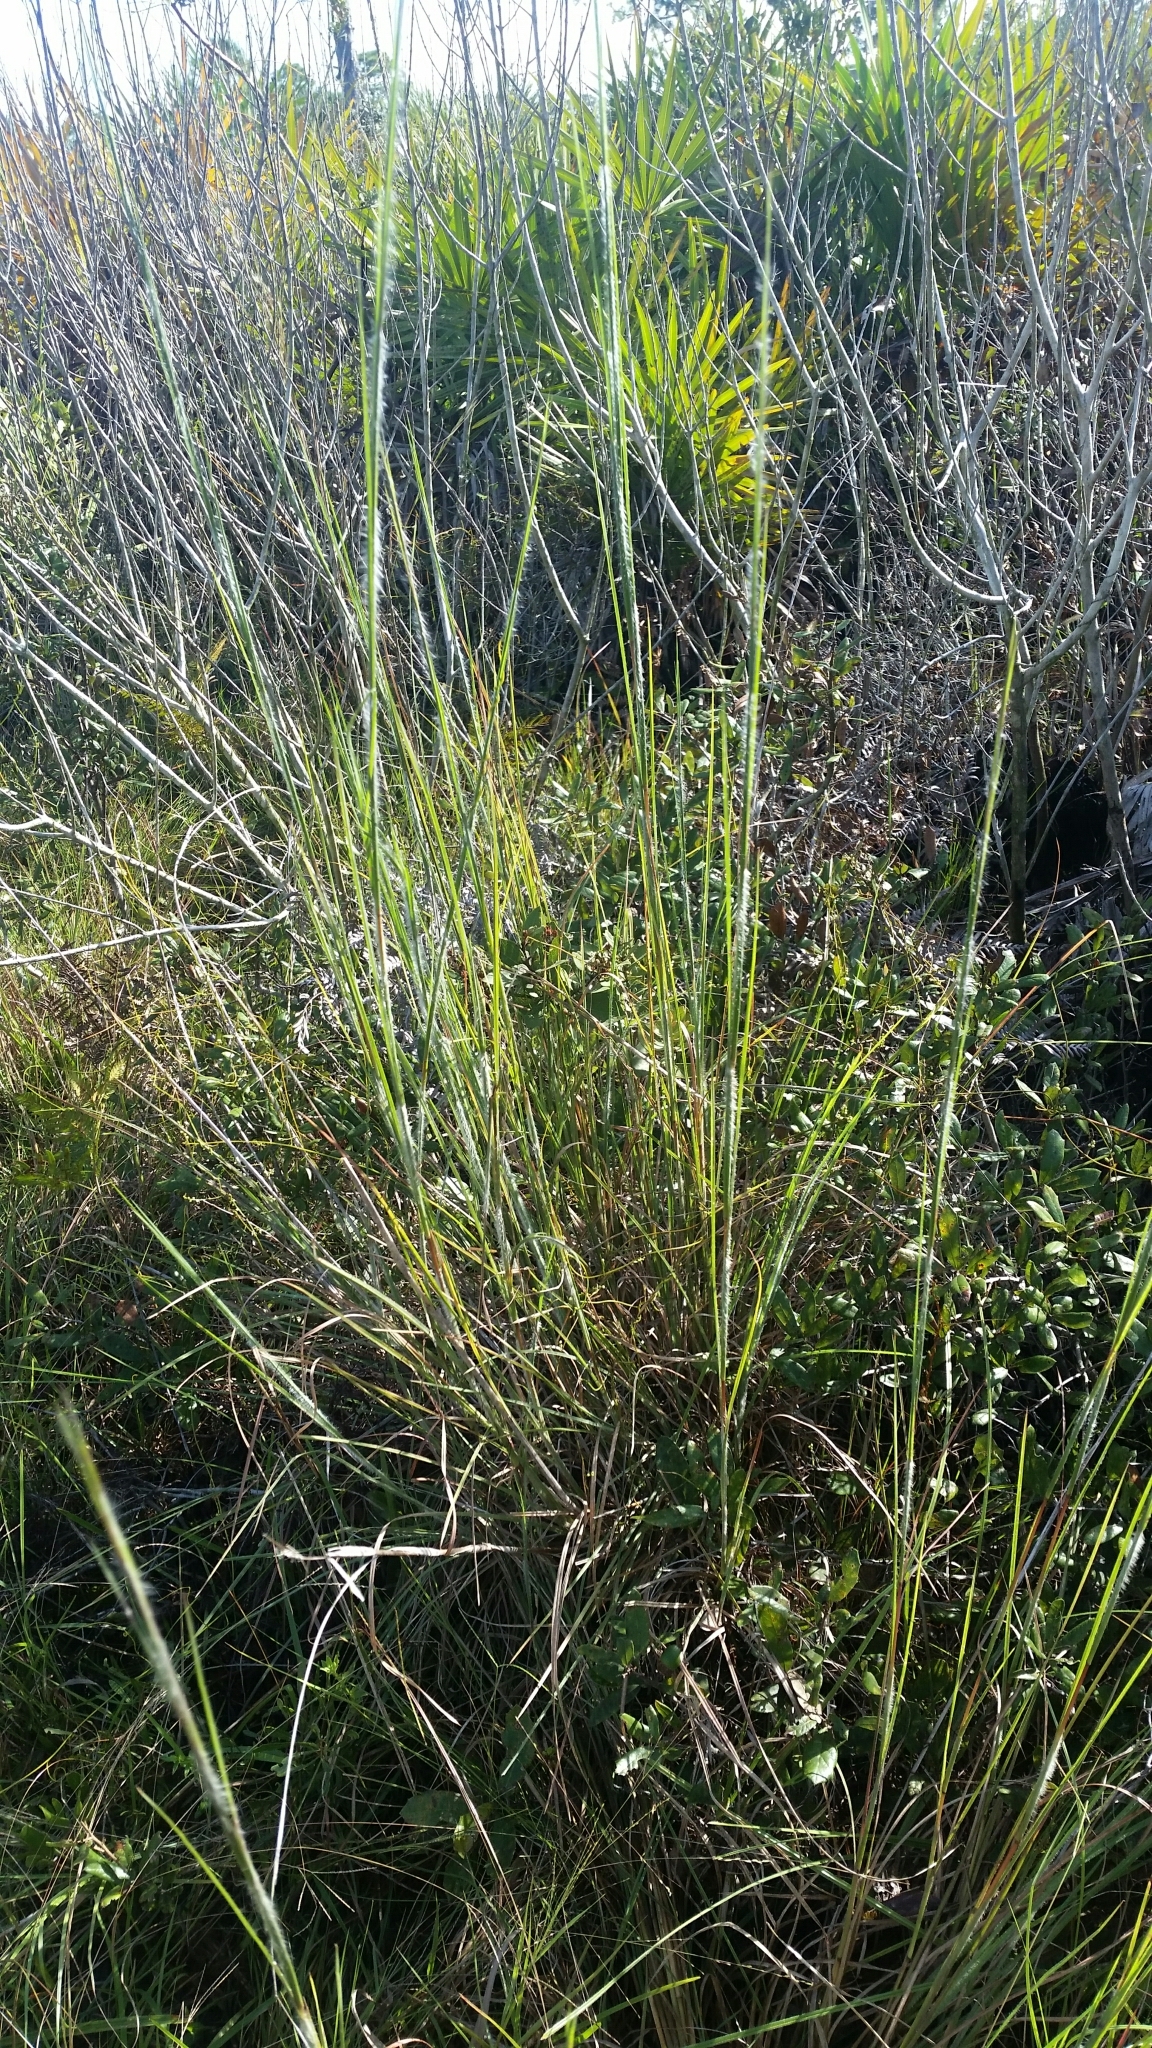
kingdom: Plantae
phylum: Tracheophyta
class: Liliopsida
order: Poales
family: Poaceae
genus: Andropogon
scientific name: Andropogon hirsutior
